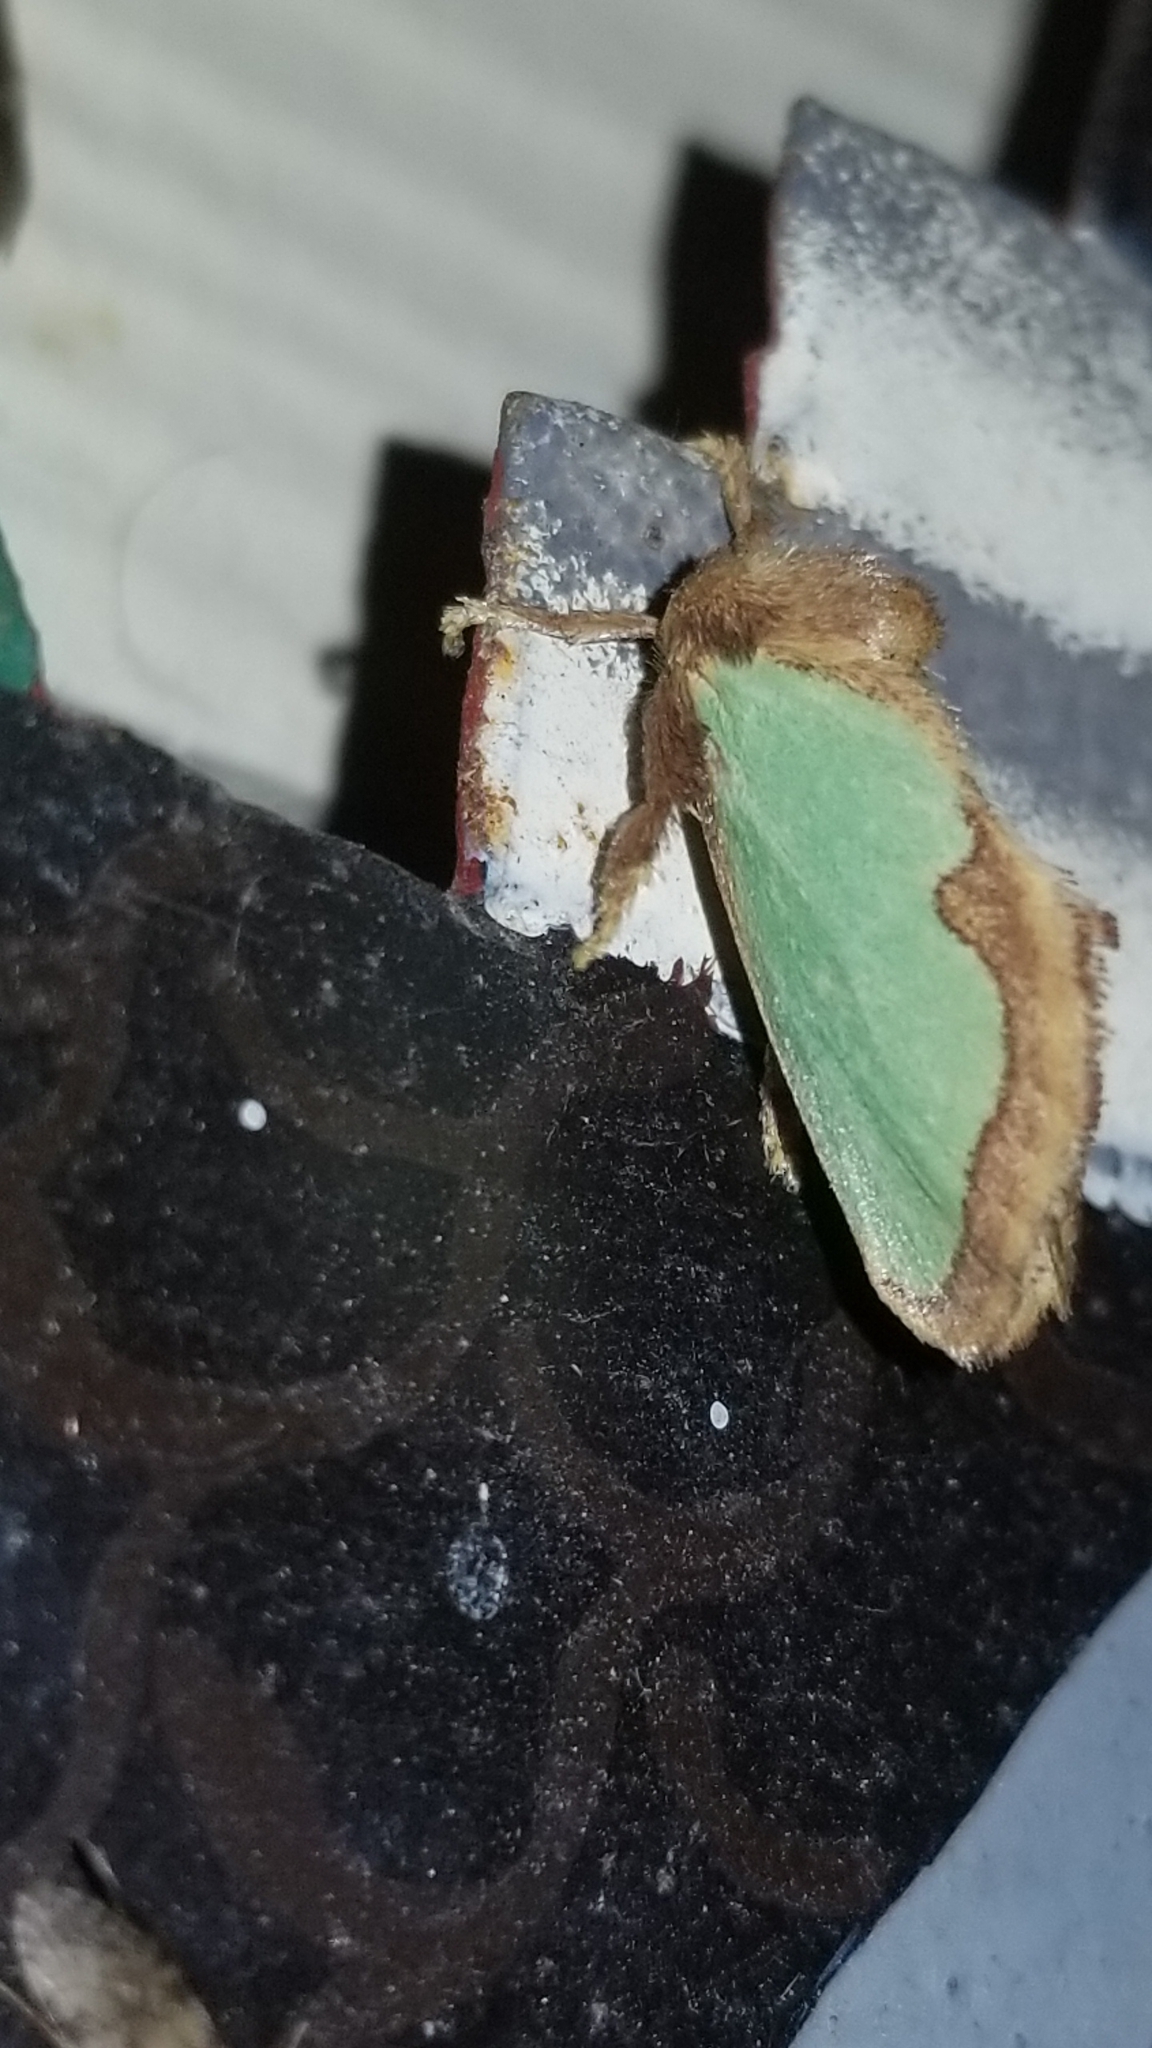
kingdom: Animalia
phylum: Arthropoda
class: Insecta
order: Lepidoptera
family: Limacodidae
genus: Euclea
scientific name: Euclea incisa
